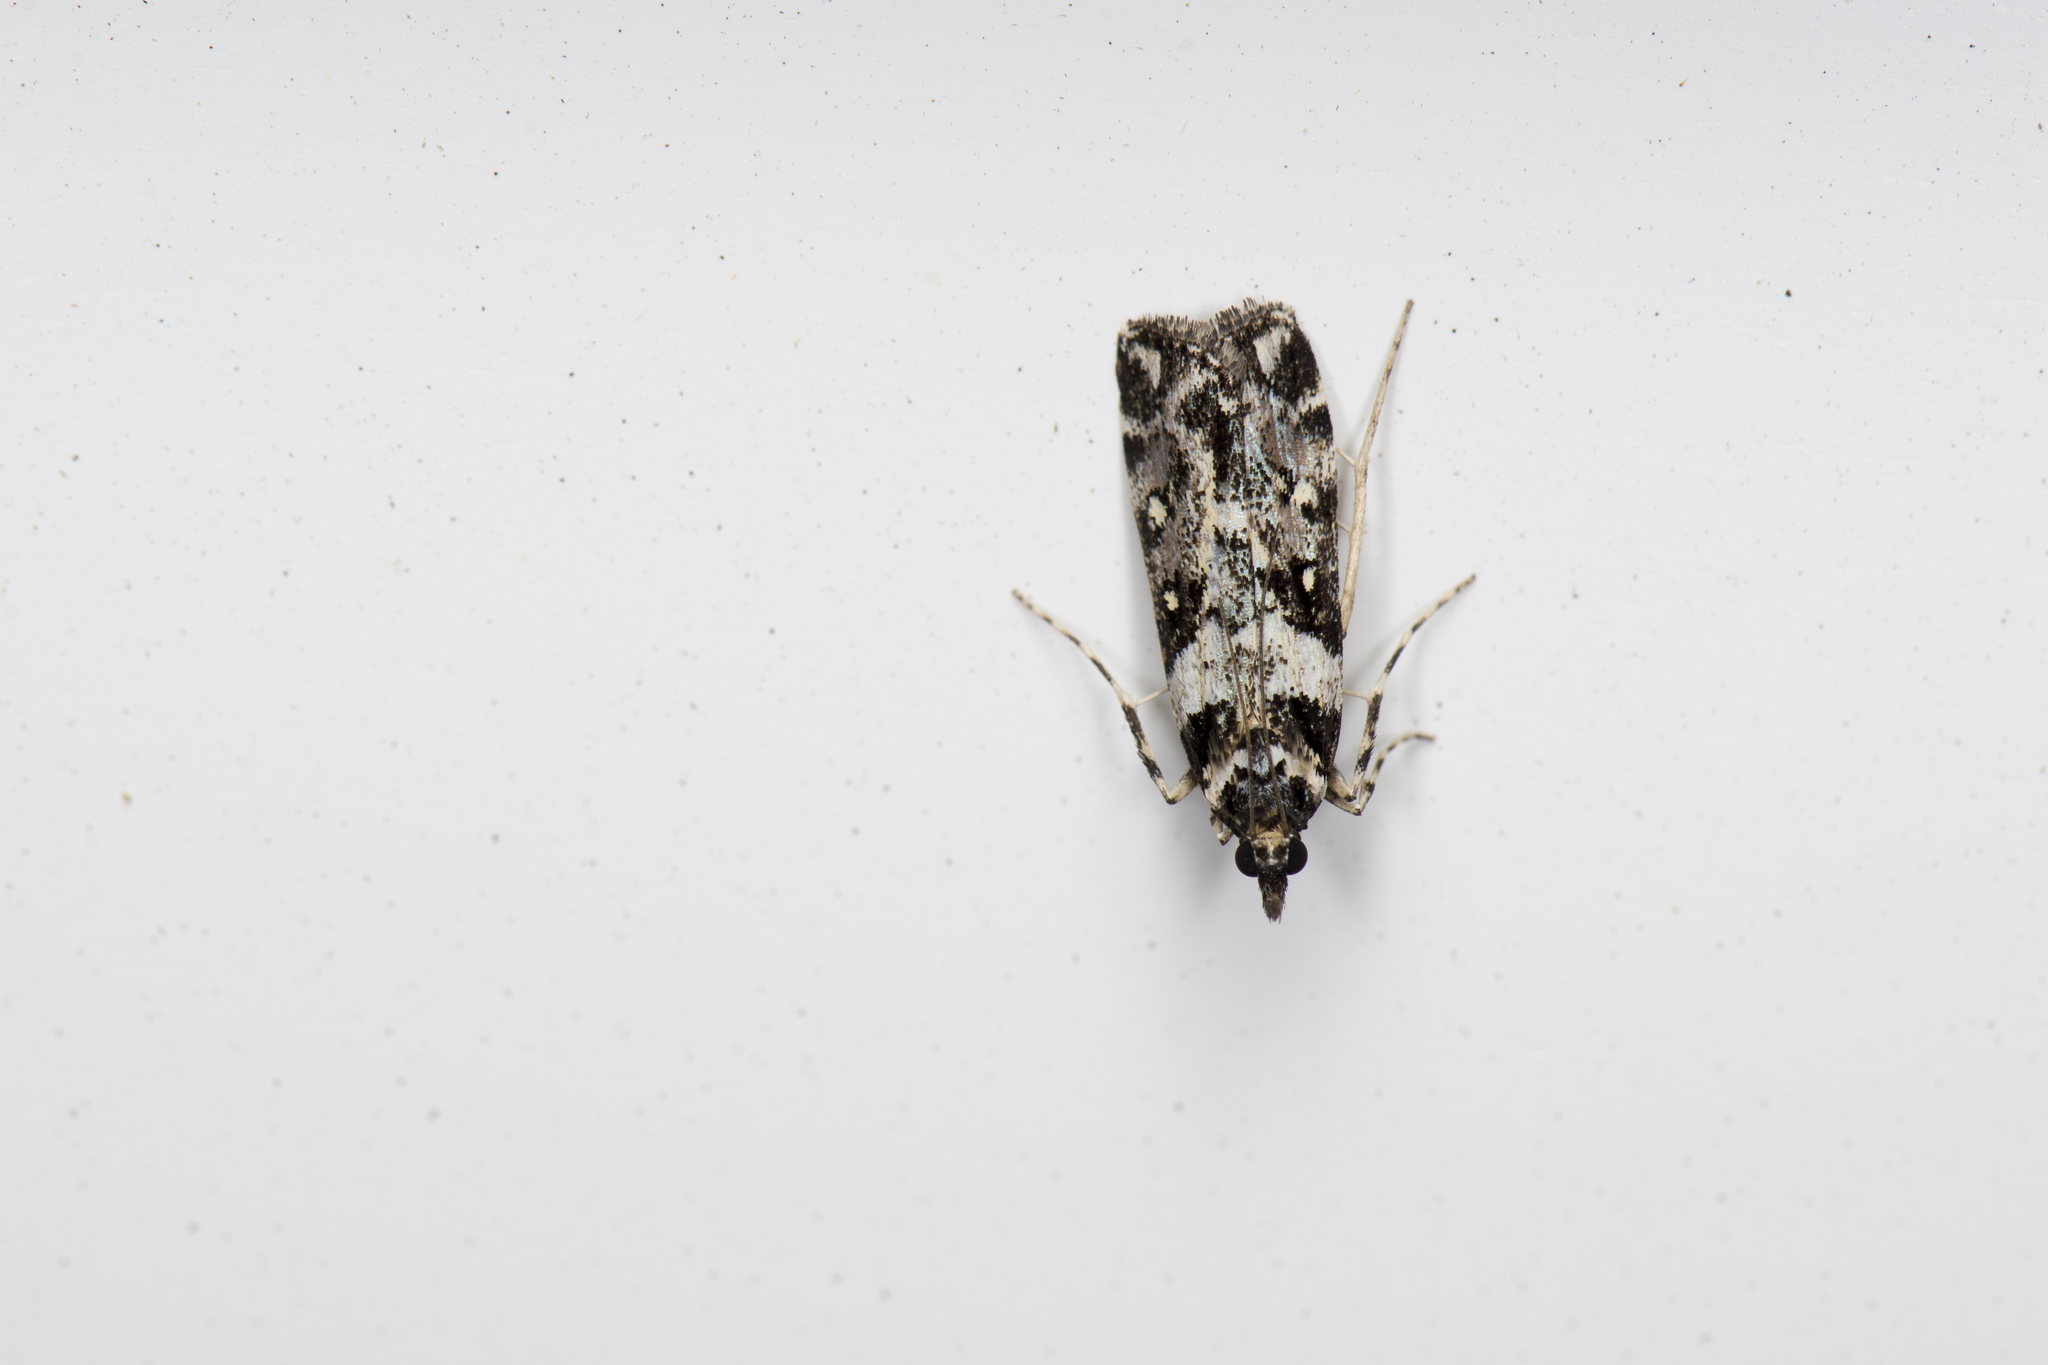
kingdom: Animalia
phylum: Arthropoda
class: Insecta
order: Lepidoptera
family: Crambidae
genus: Eudonia
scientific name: Eudonia diphtheralis
